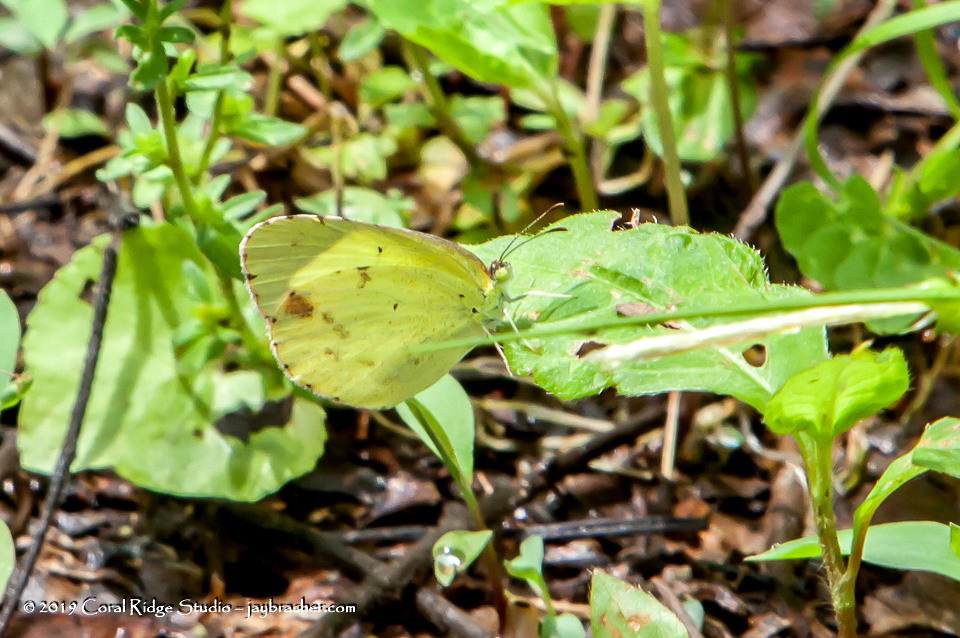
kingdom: Animalia
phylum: Arthropoda
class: Insecta
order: Lepidoptera
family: Pieridae
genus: Pyrisitia
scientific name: Pyrisitia lisa
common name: Little yellow
